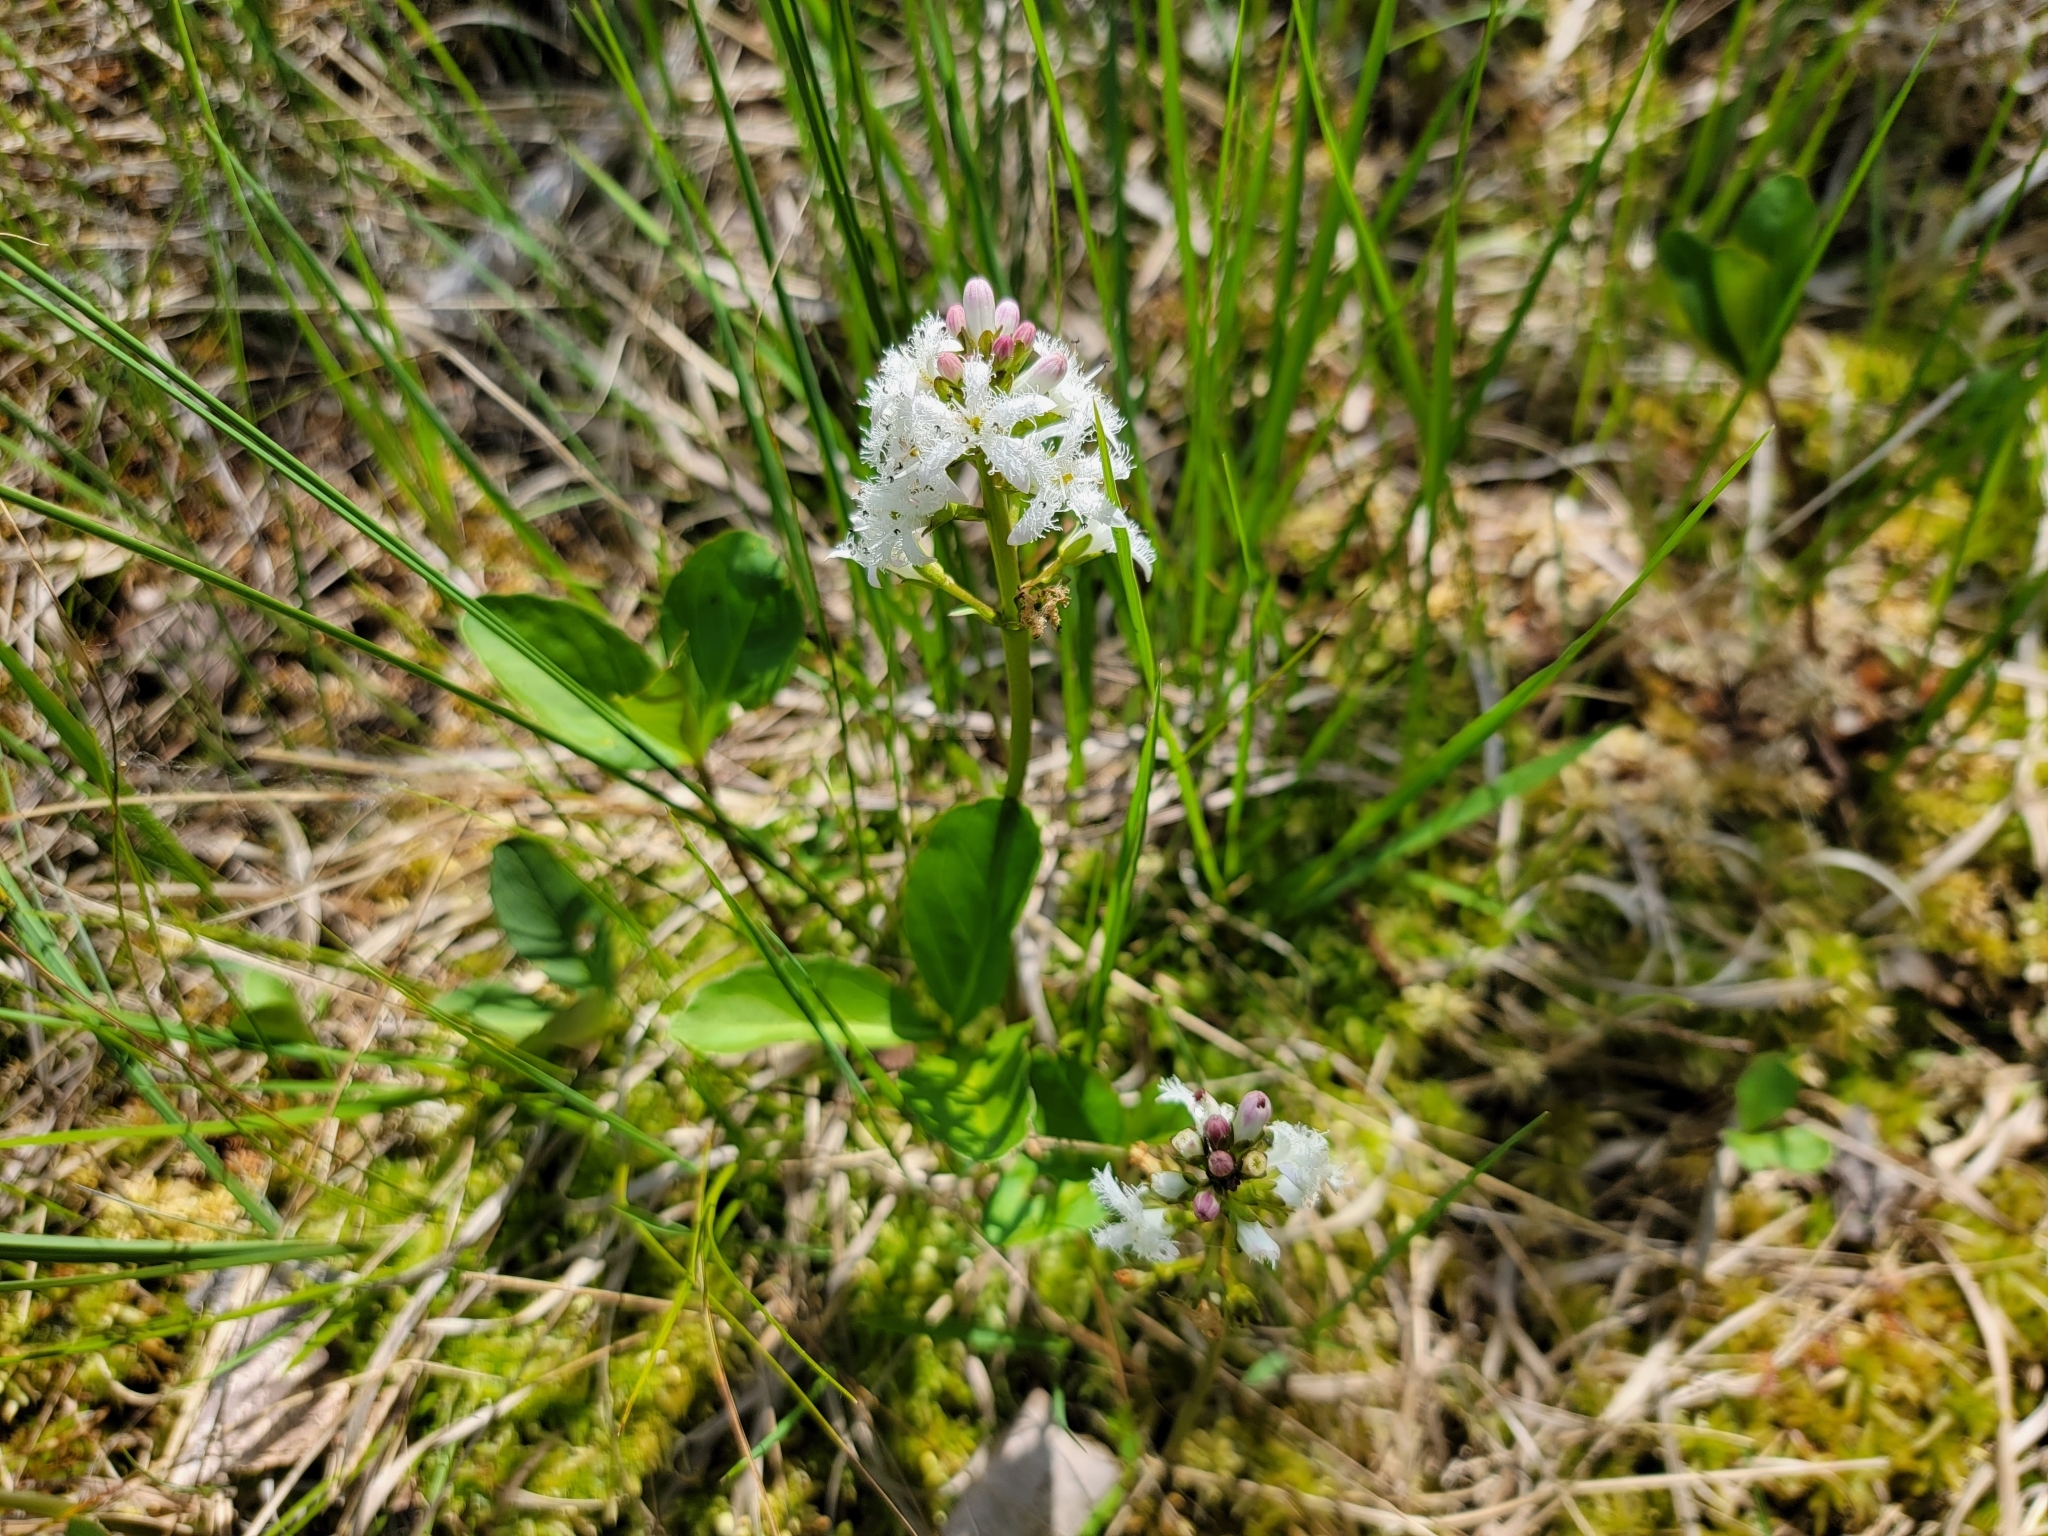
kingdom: Plantae
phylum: Tracheophyta
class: Magnoliopsida
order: Asterales
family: Menyanthaceae
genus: Menyanthes
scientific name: Menyanthes trifoliata
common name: Bogbean
